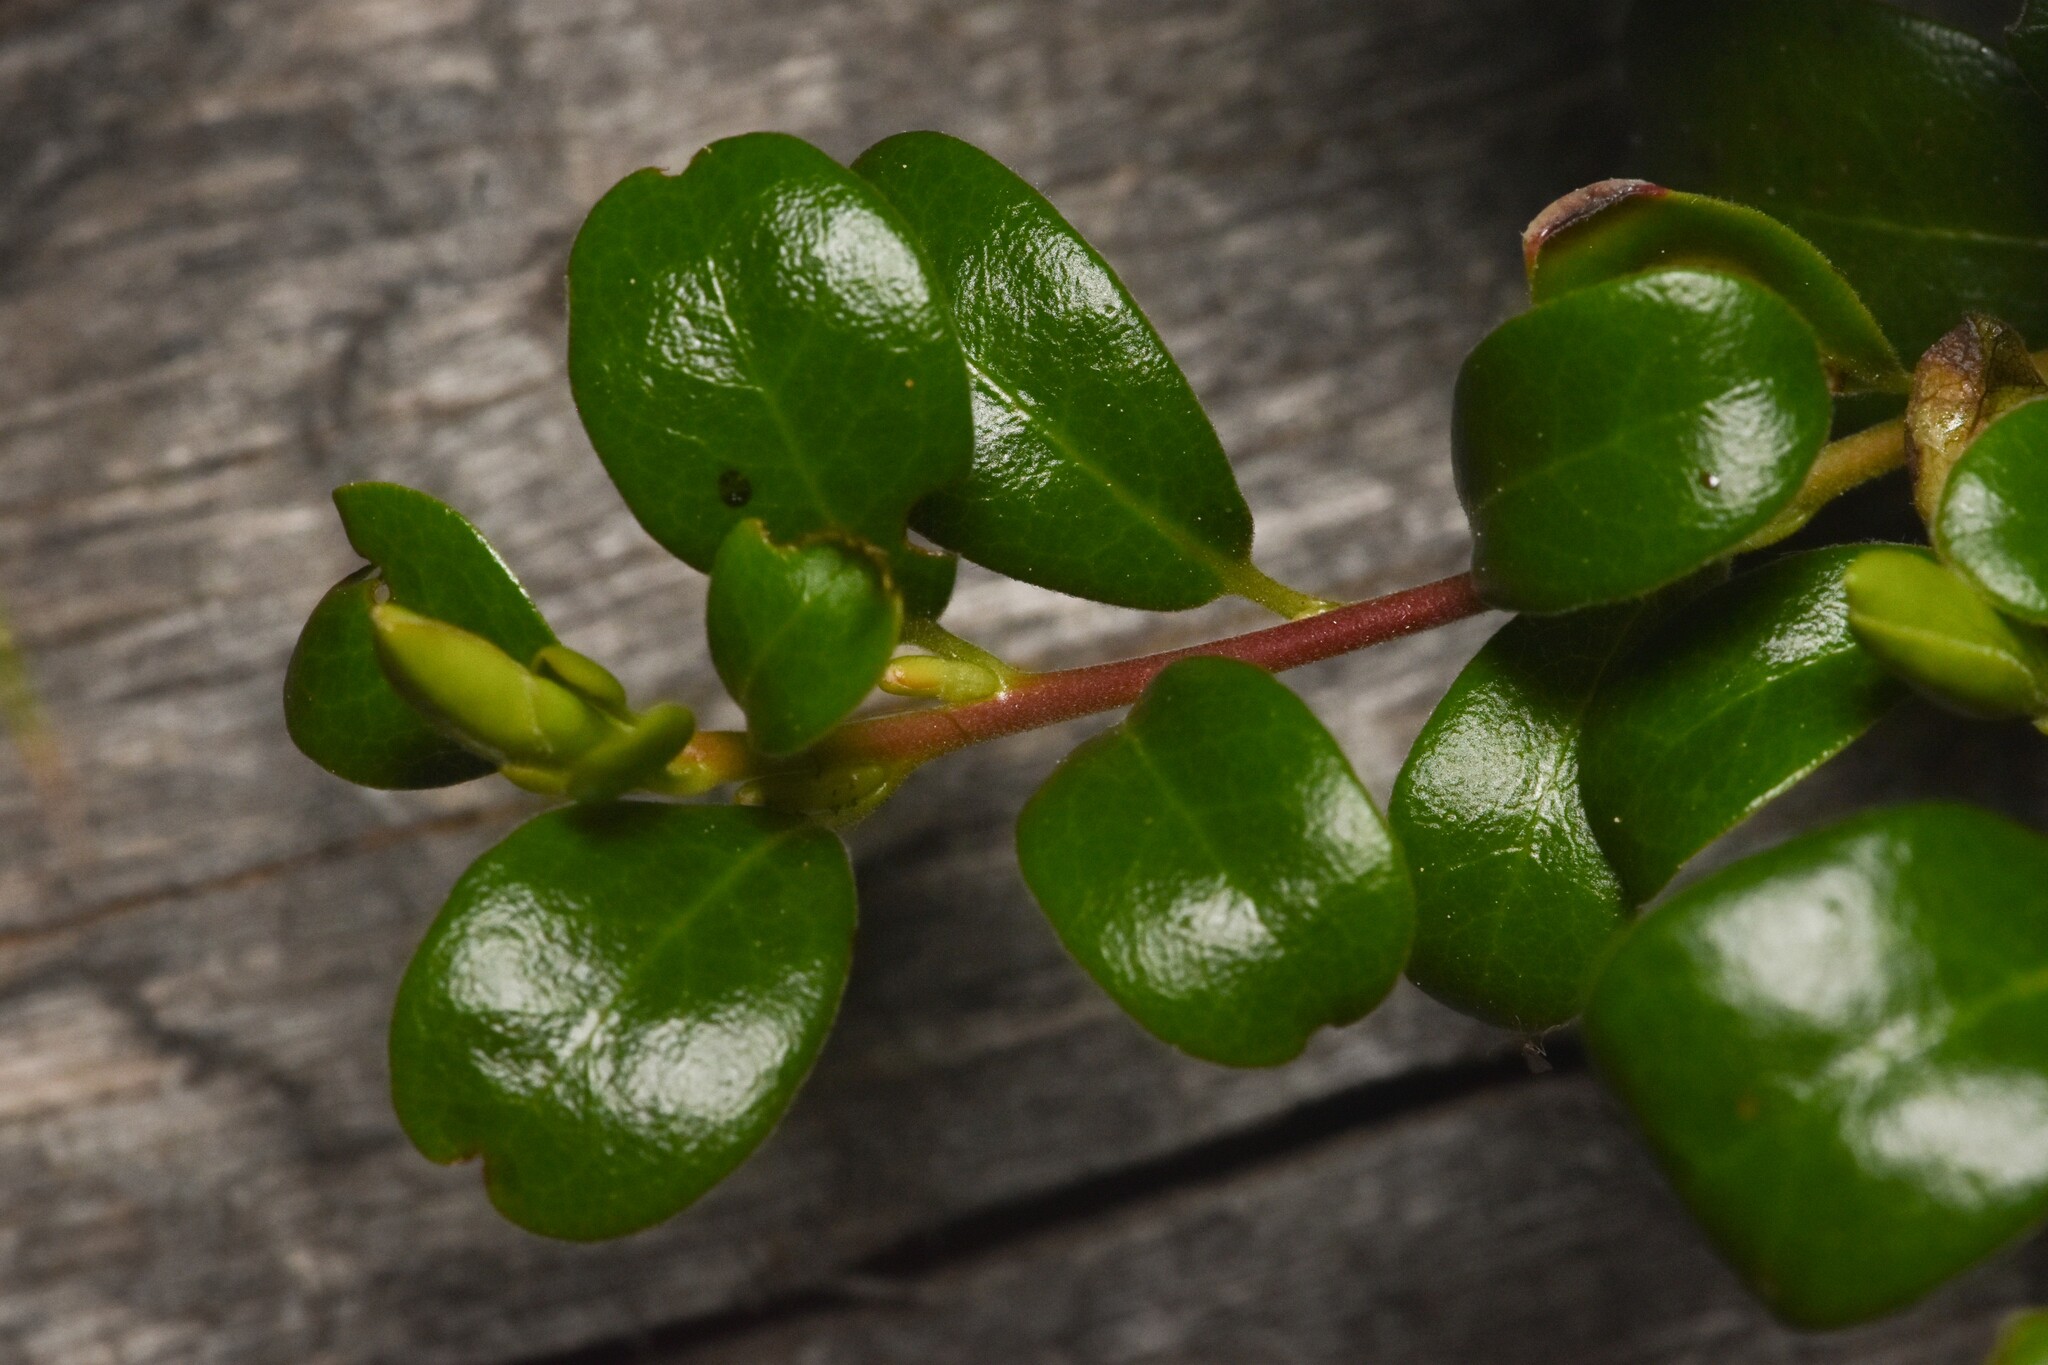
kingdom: Plantae
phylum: Tracheophyta
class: Magnoliopsida
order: Ericales
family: Ericaceae
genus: Arctostaphylos
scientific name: Arctostaphylos uva-ursi
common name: Bearberry
